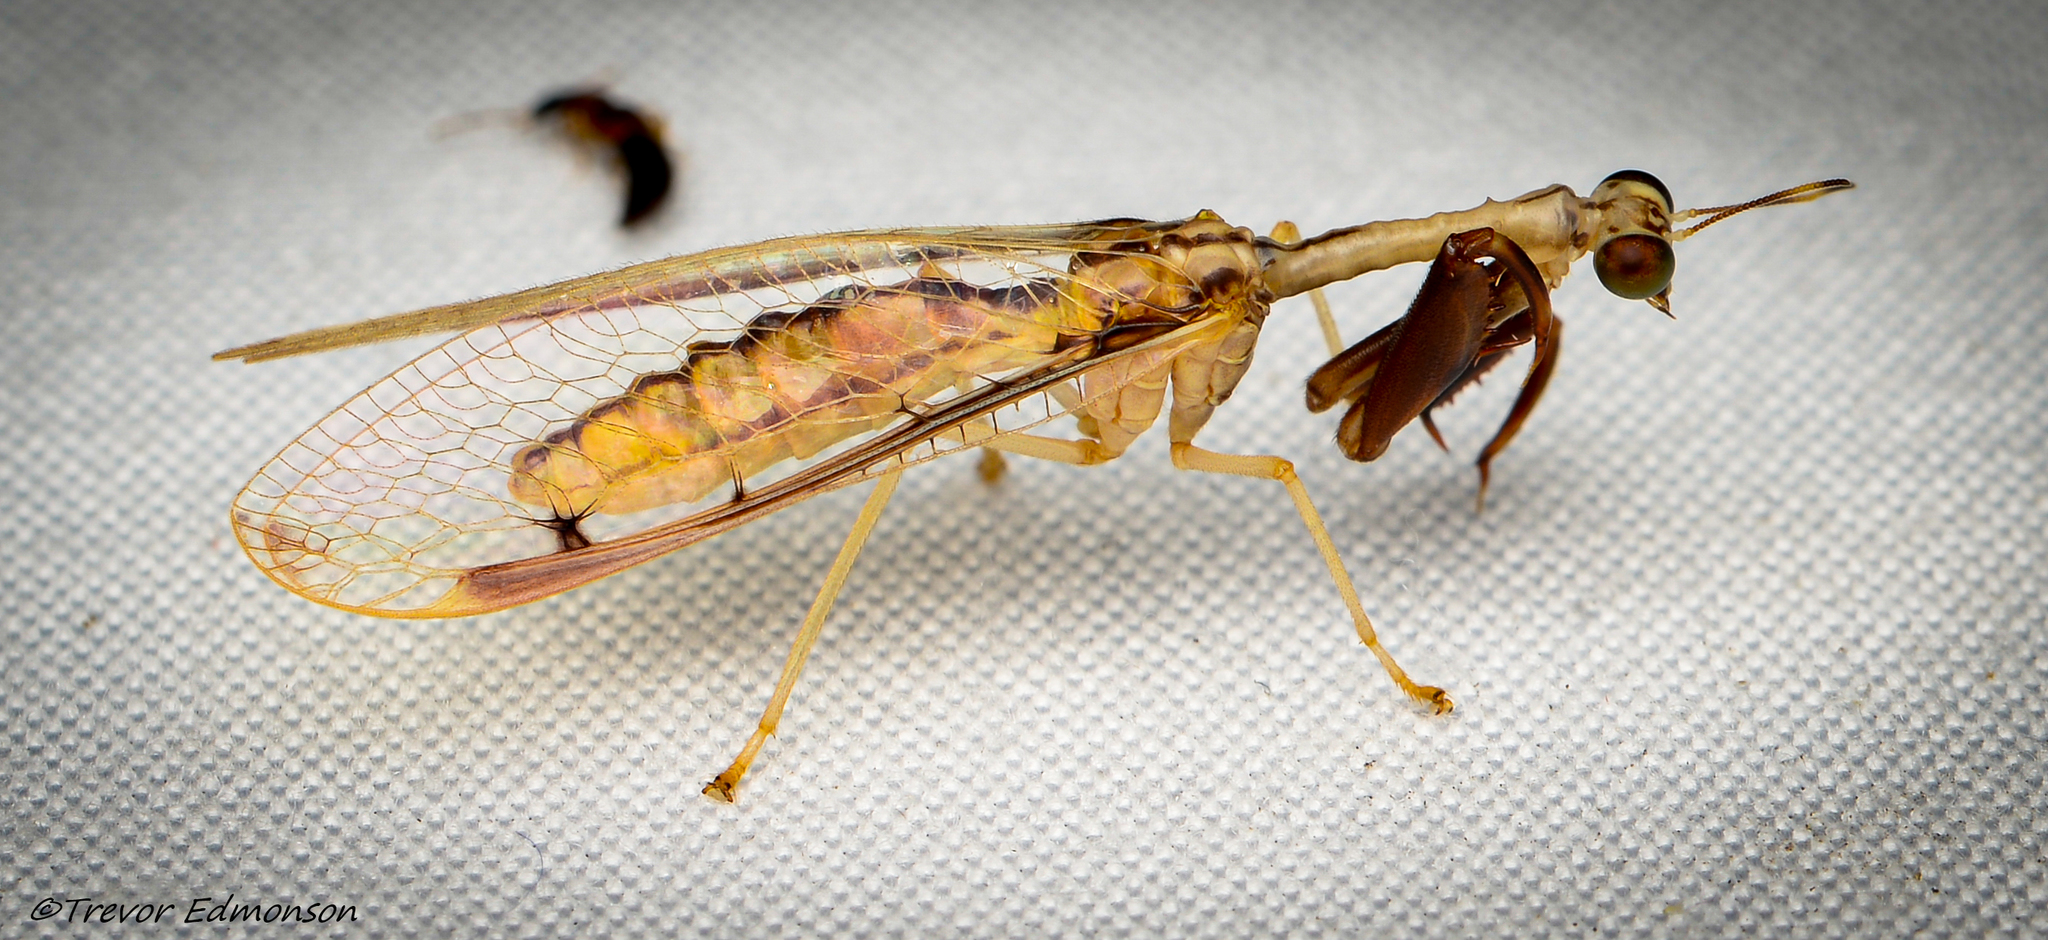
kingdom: Animalia
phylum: Arthropoda
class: Insecta
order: Neuroptera
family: Mantispidae
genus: Dicromantispa
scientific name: Dicromantispa interrupta
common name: Four-spotted mantidfly
